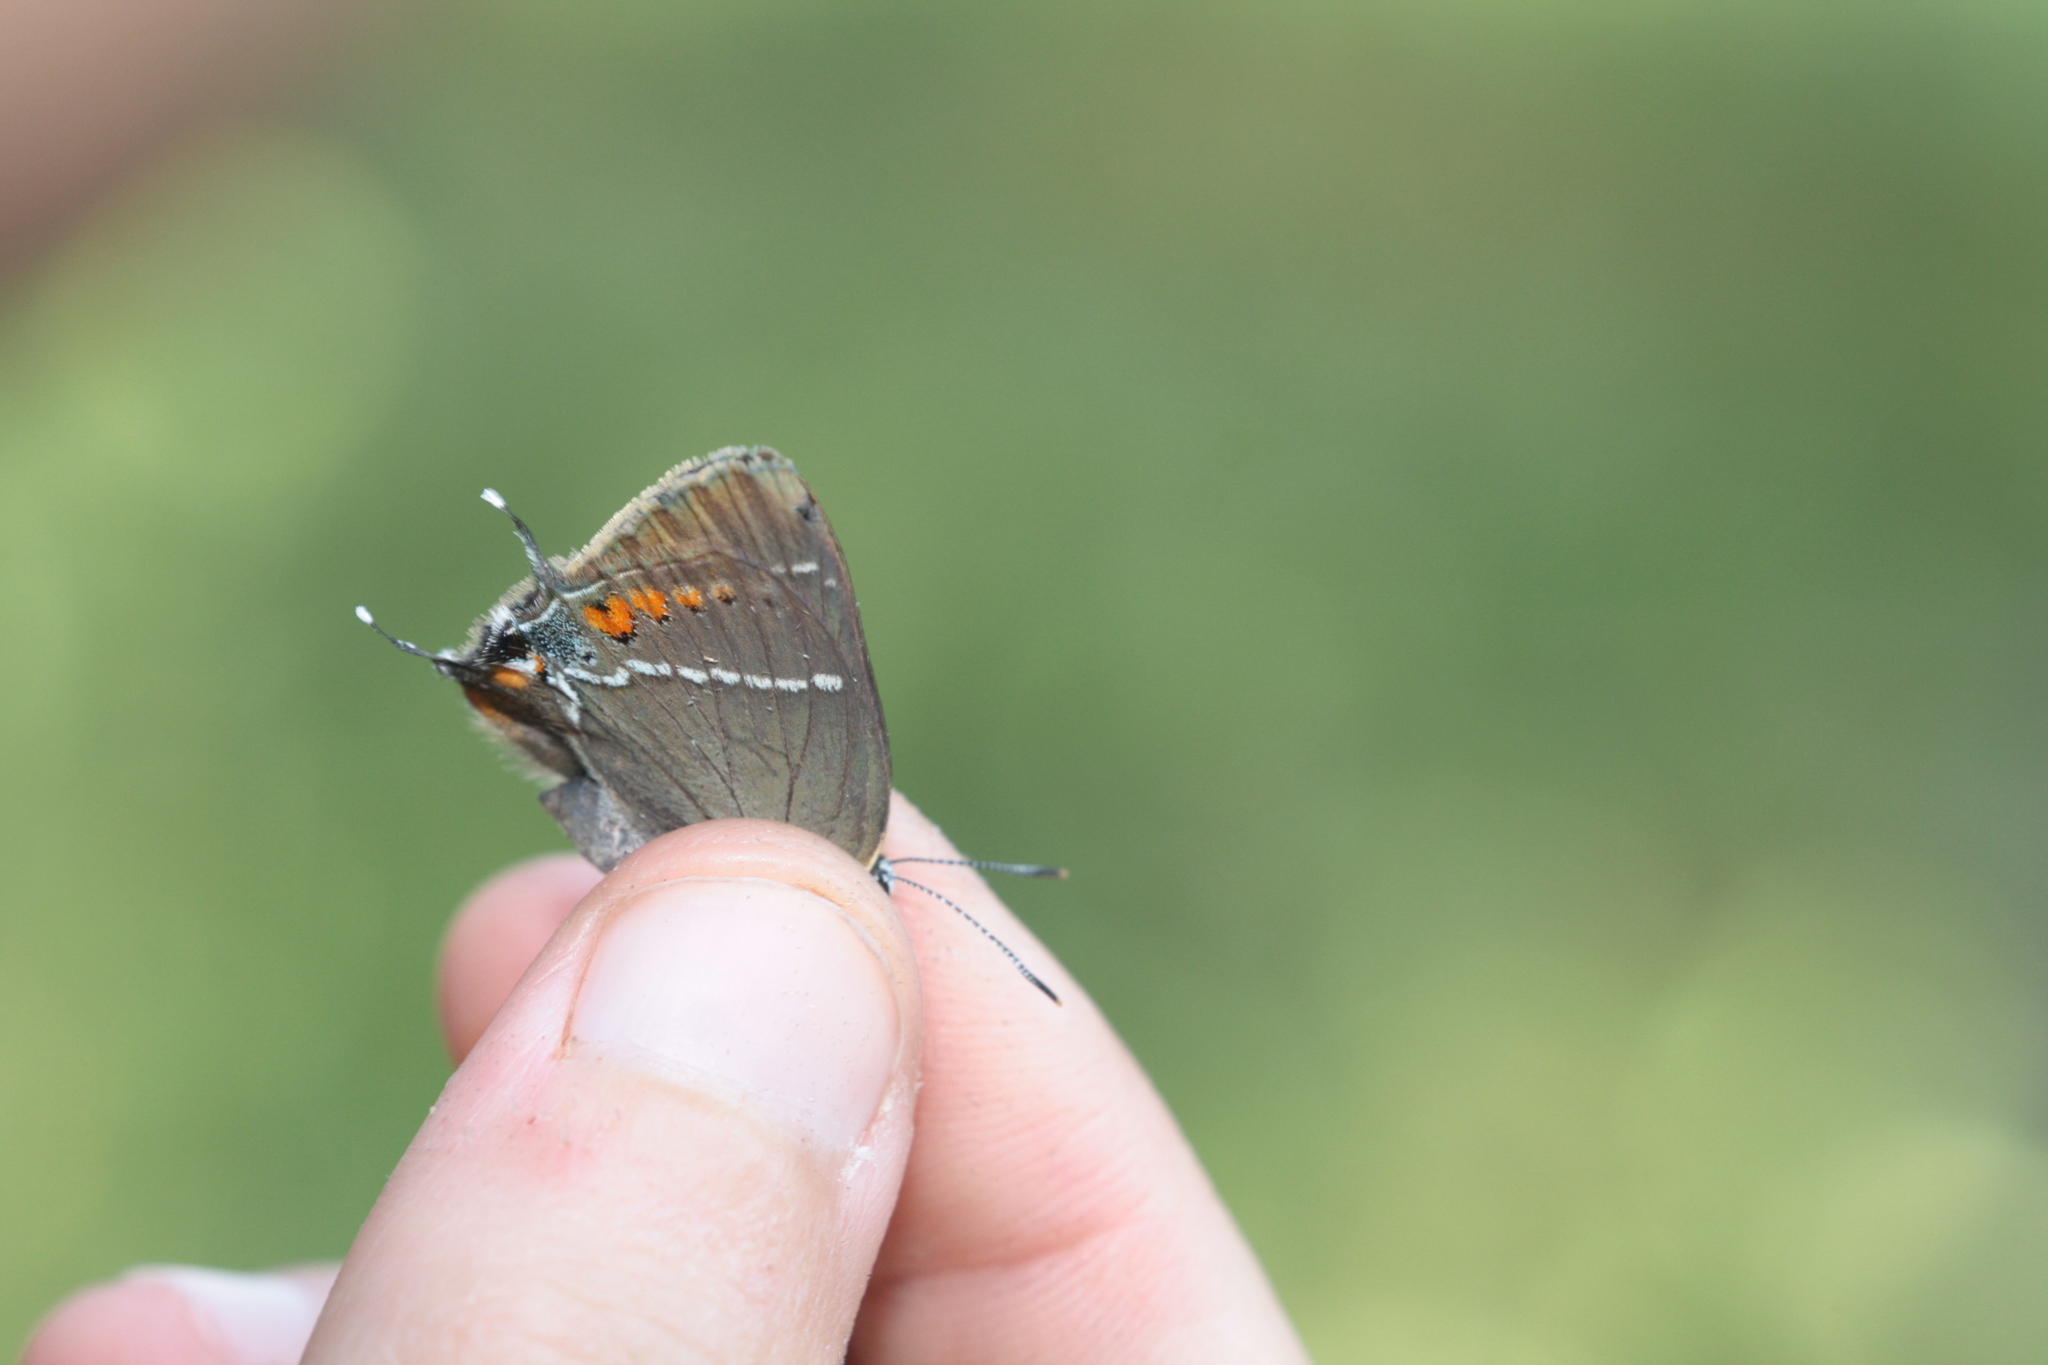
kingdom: Animalia
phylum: Arthropoda
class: Insecta
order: Lepidoptera
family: Lycaenidae
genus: Tuttiola
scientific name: Tuttiola spini
